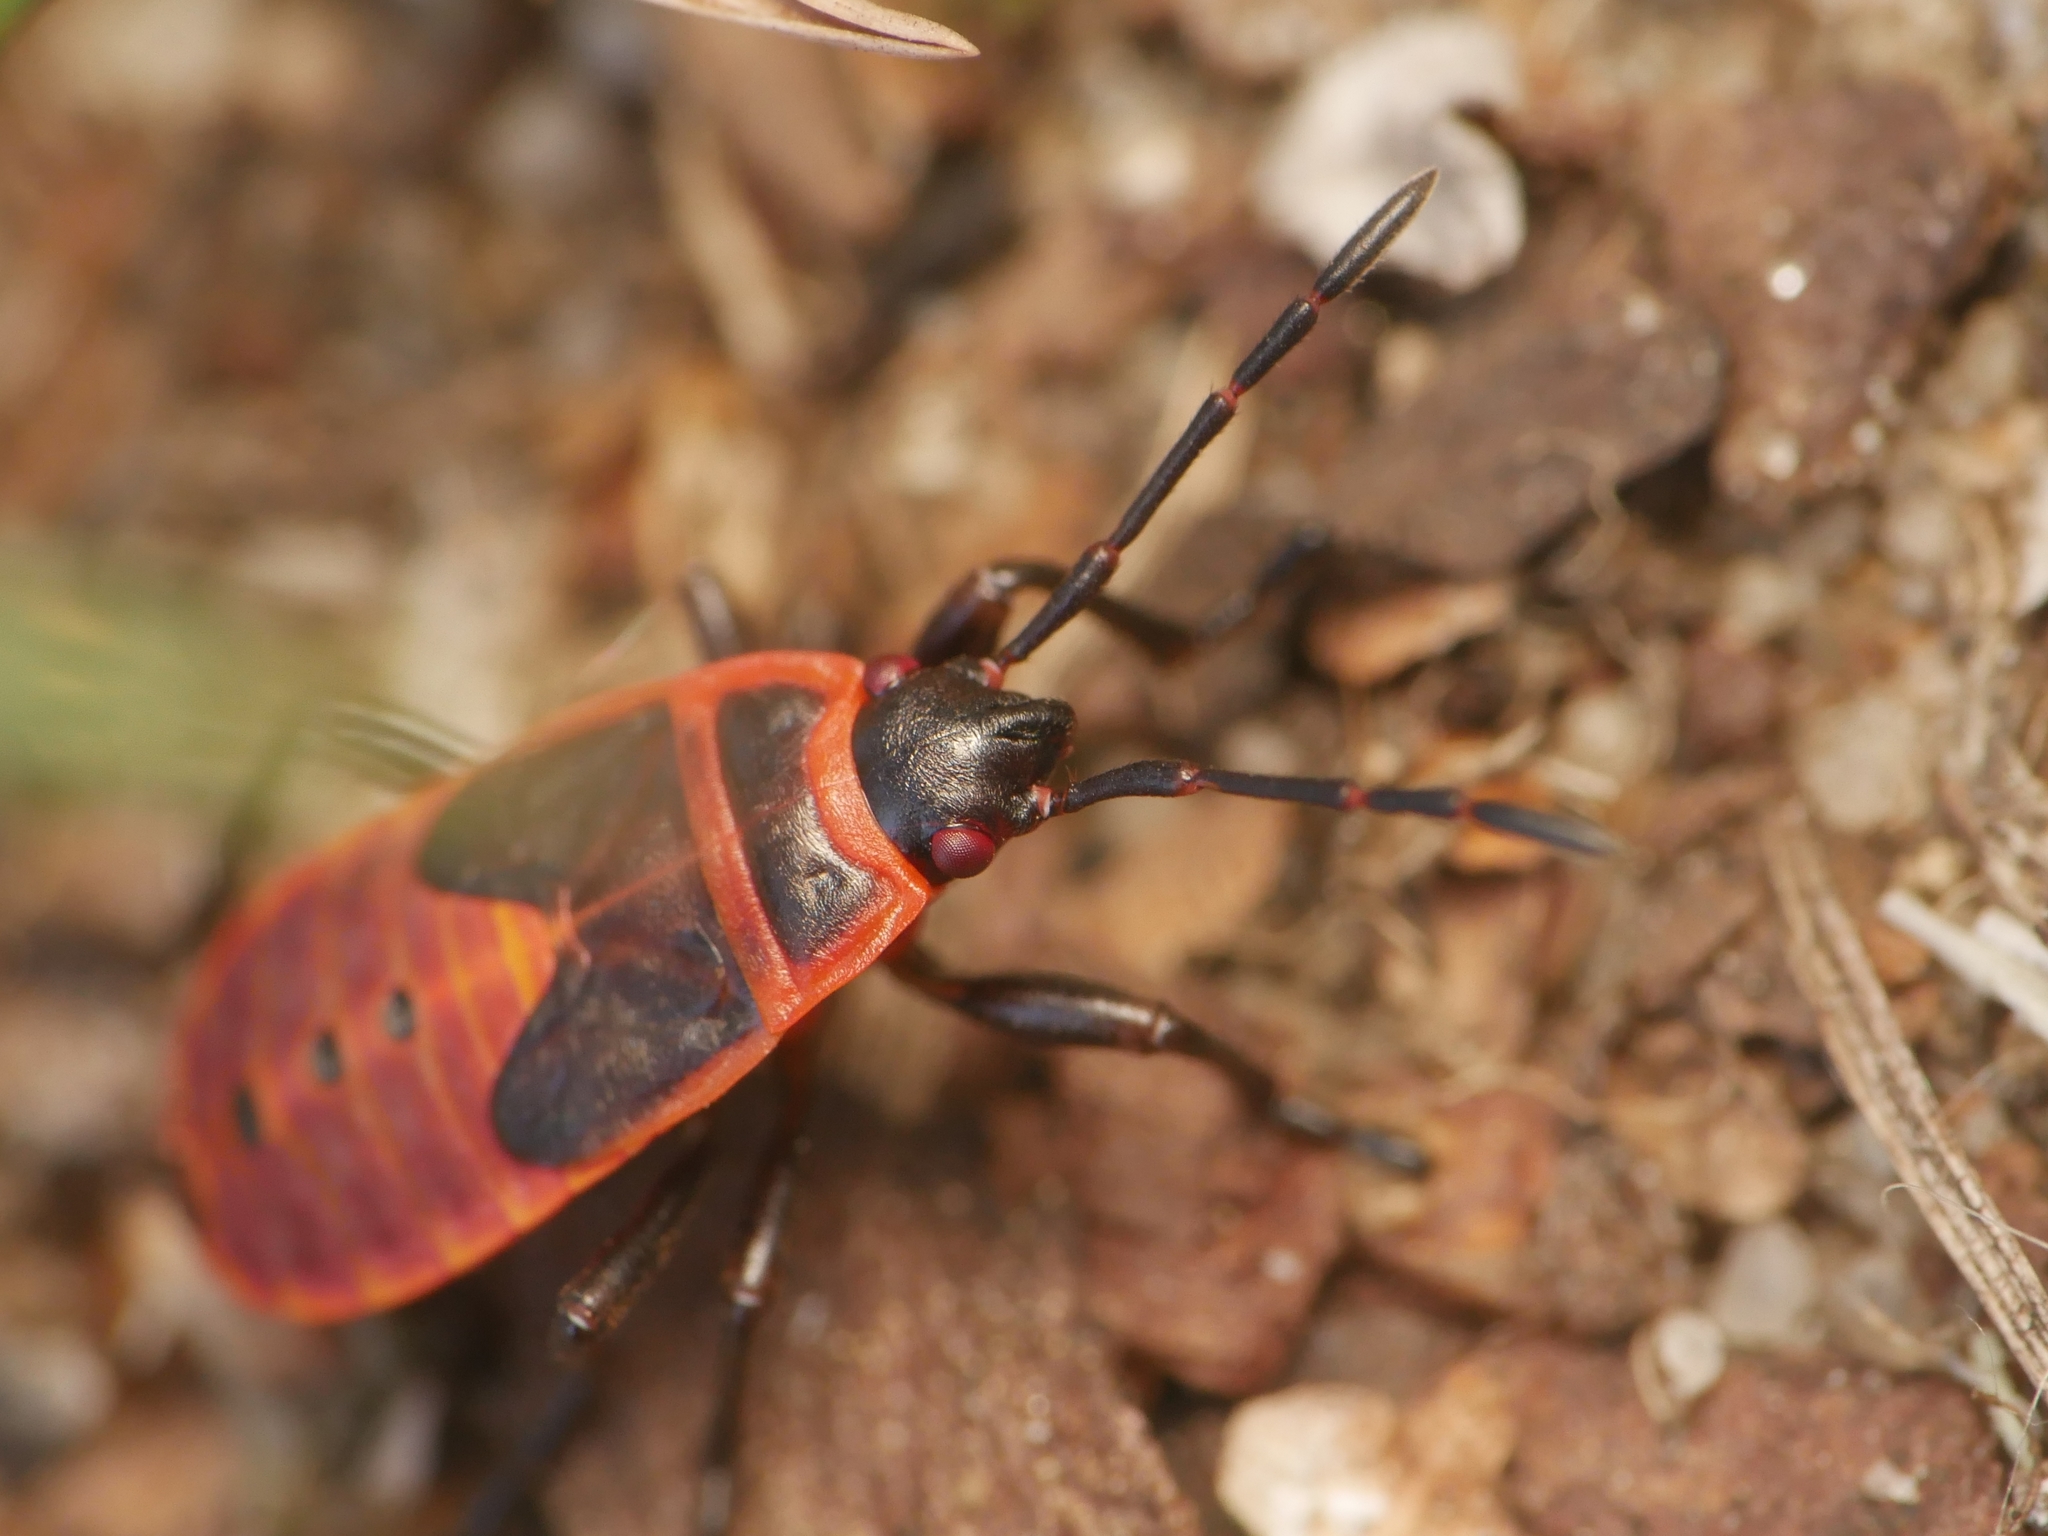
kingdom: Animalia
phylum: Arthropoda
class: Insecta
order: Hemiptera
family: Pyrrhocoridae
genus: Pyrrhocoris
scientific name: Pyrrhocoris apterus
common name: Firebug
